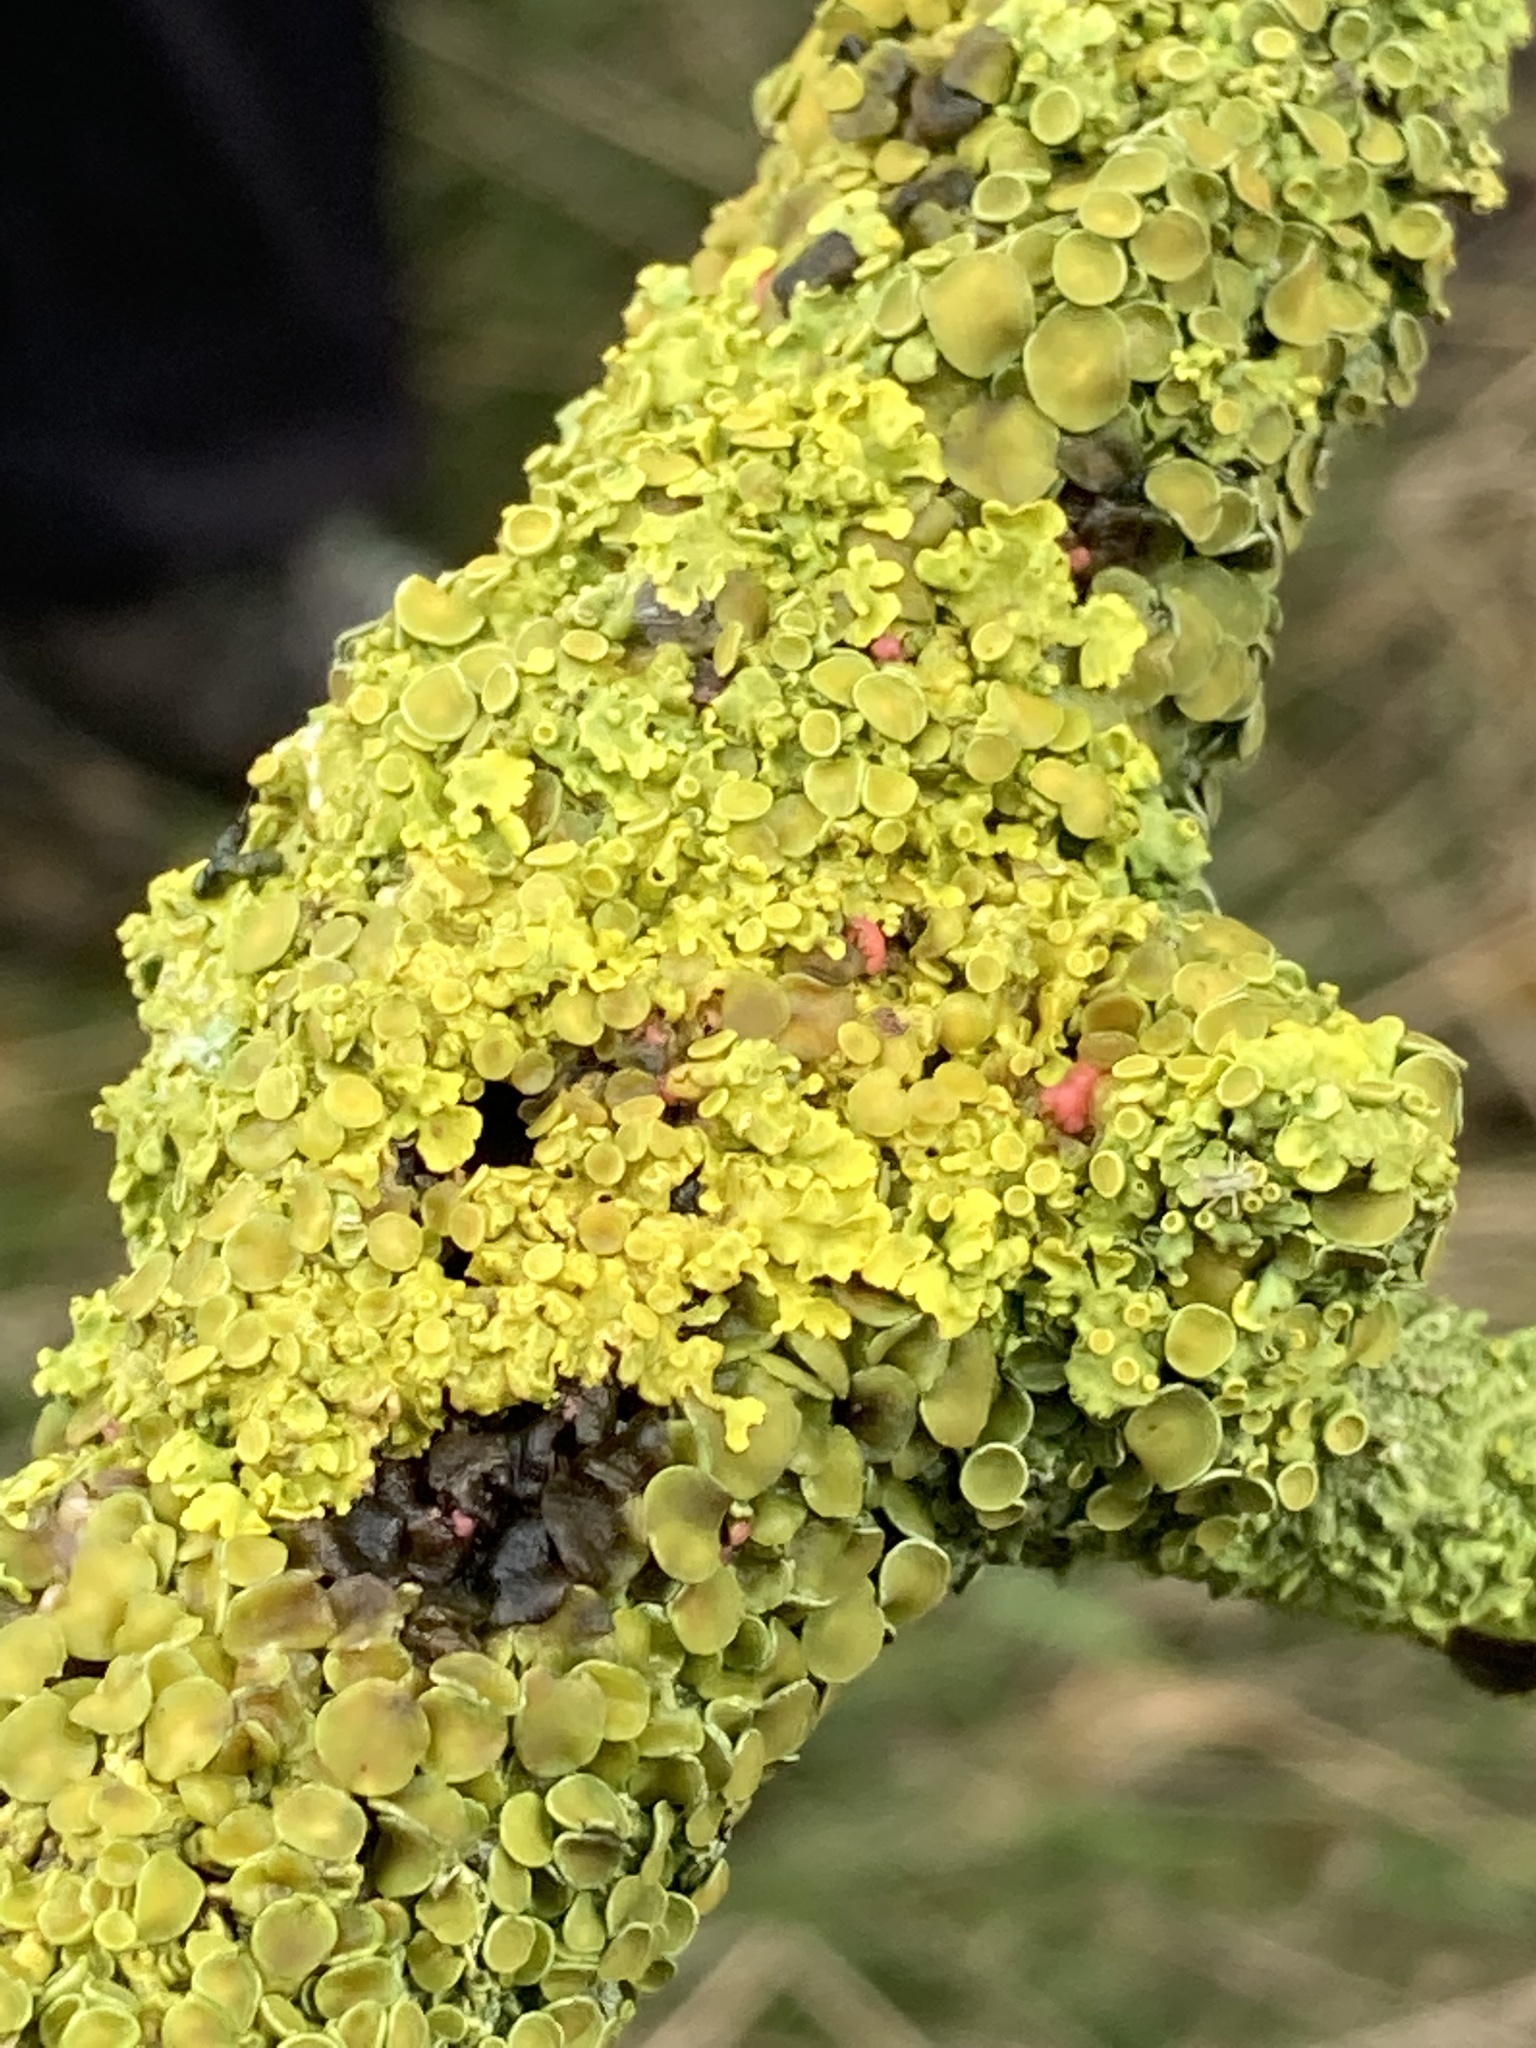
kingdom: Fungi
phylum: Ascomycota
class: Lecanoromycetes
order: Teloschistales
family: Teloschistaceae
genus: Xanthoria
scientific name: Xanthoria parietina
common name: Common orange lichen
